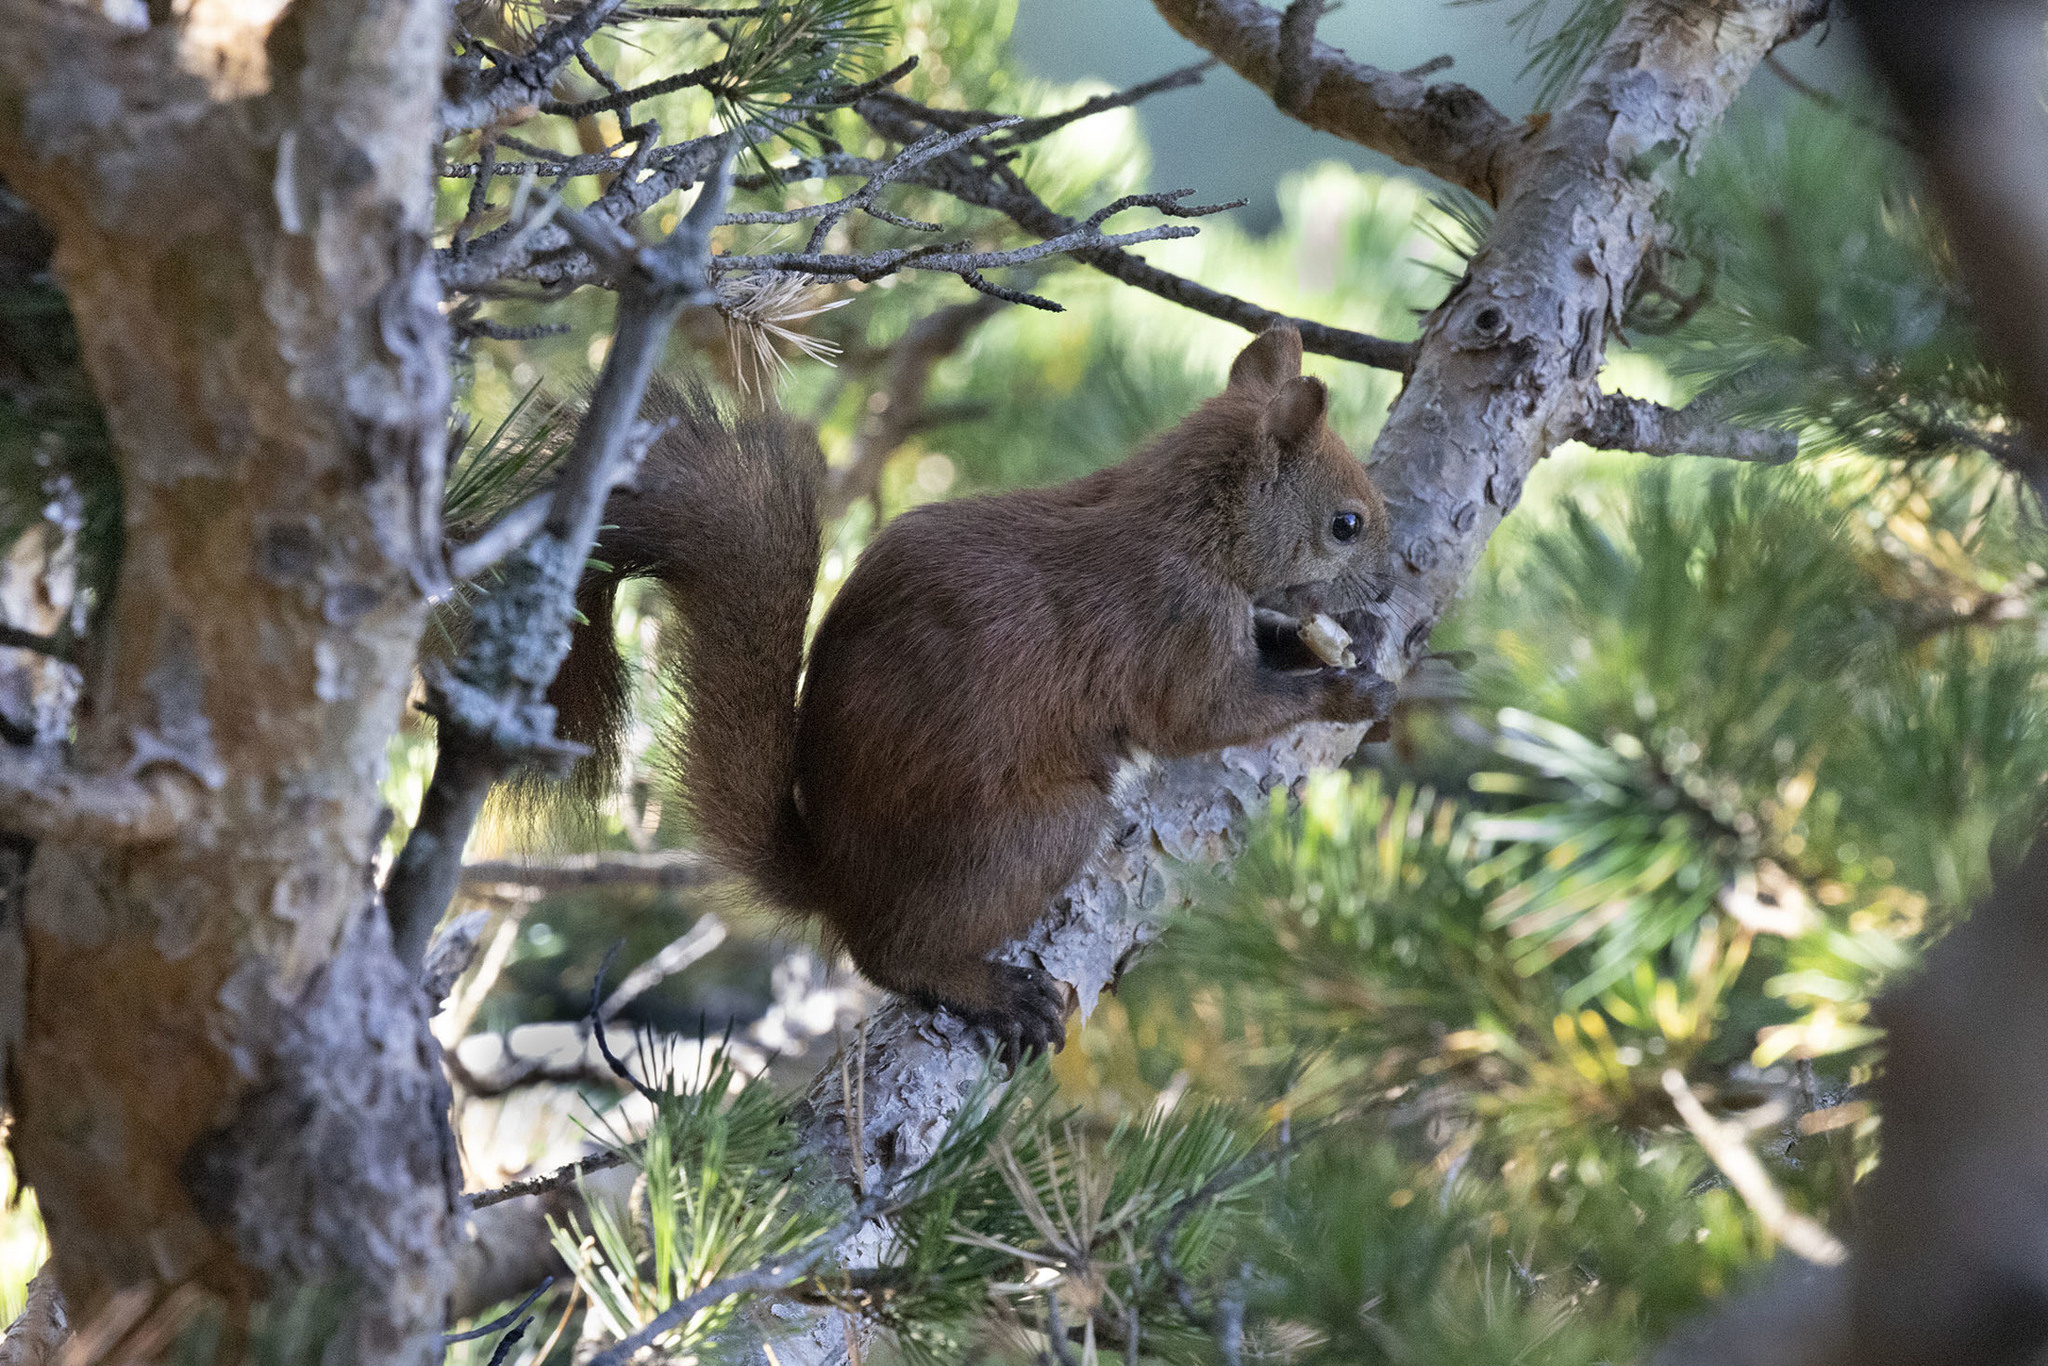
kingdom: Animalia
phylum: Chordata
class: Mammalia
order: Rodentia
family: Sciuridae
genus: Sciurus
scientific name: Sciurus vulgaris
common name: Eurasian red squirrel
